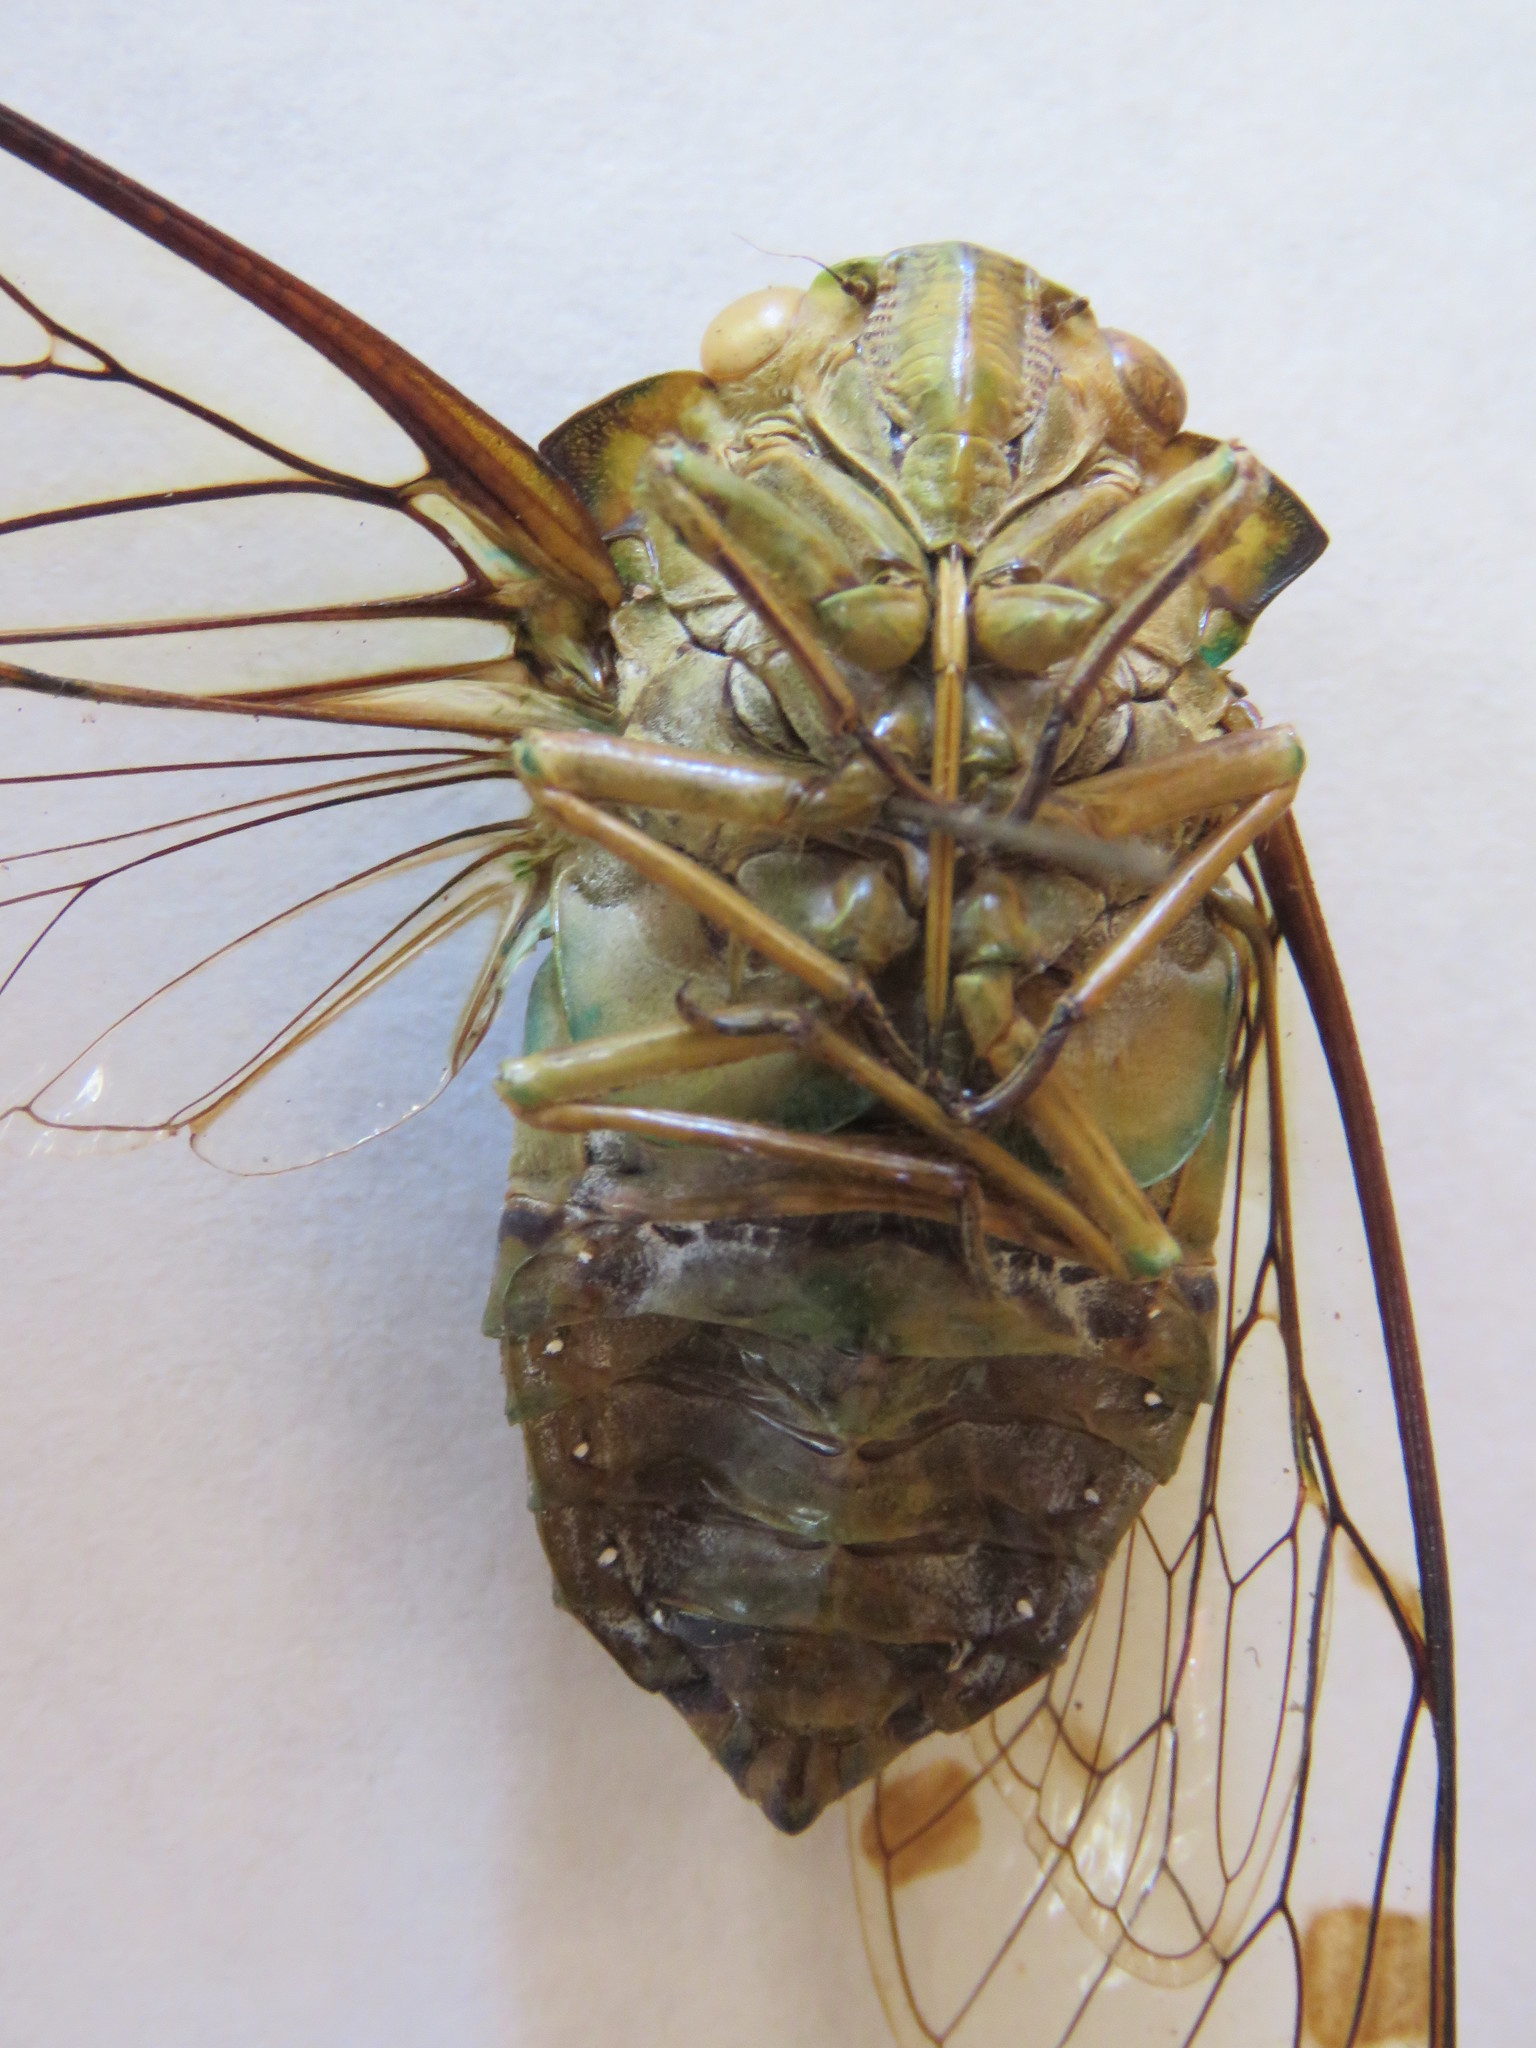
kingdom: Animalia
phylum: Arthropoda
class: Insecta
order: Hemiptera
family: Cicadidae
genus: Zammara
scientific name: Zammara smaragdina
